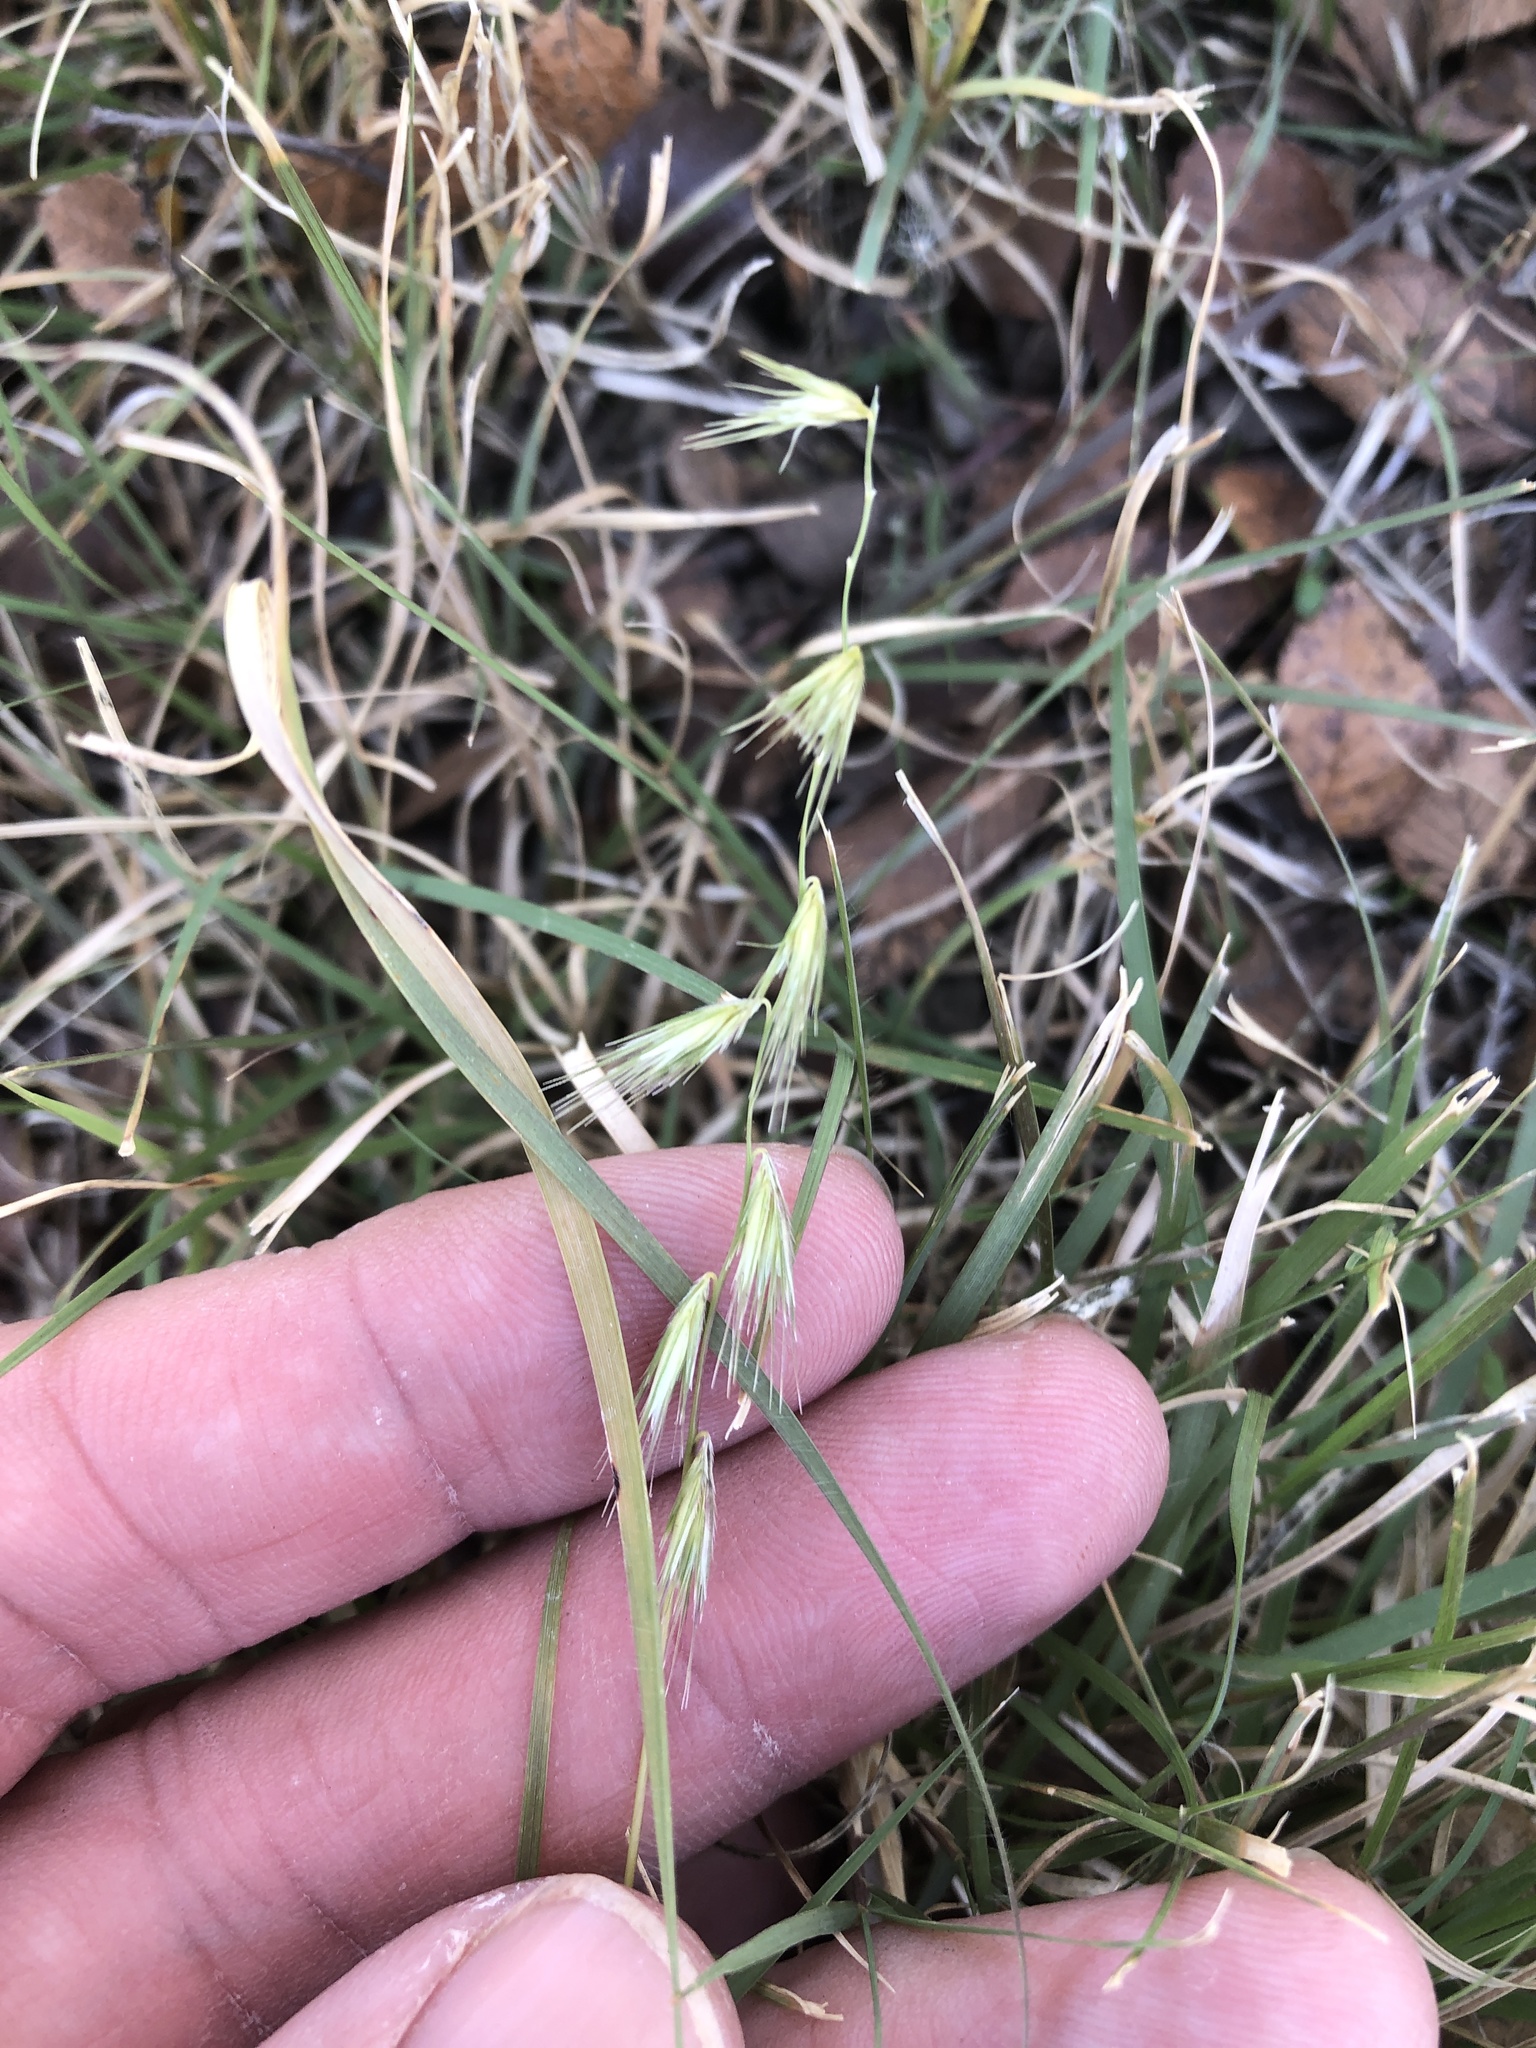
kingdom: Plantae
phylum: Tracheophyta
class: Liliopsida
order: Poales
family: Poaceae
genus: Bouteloua
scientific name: Bouteloua rigidiseta
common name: Texas grama
